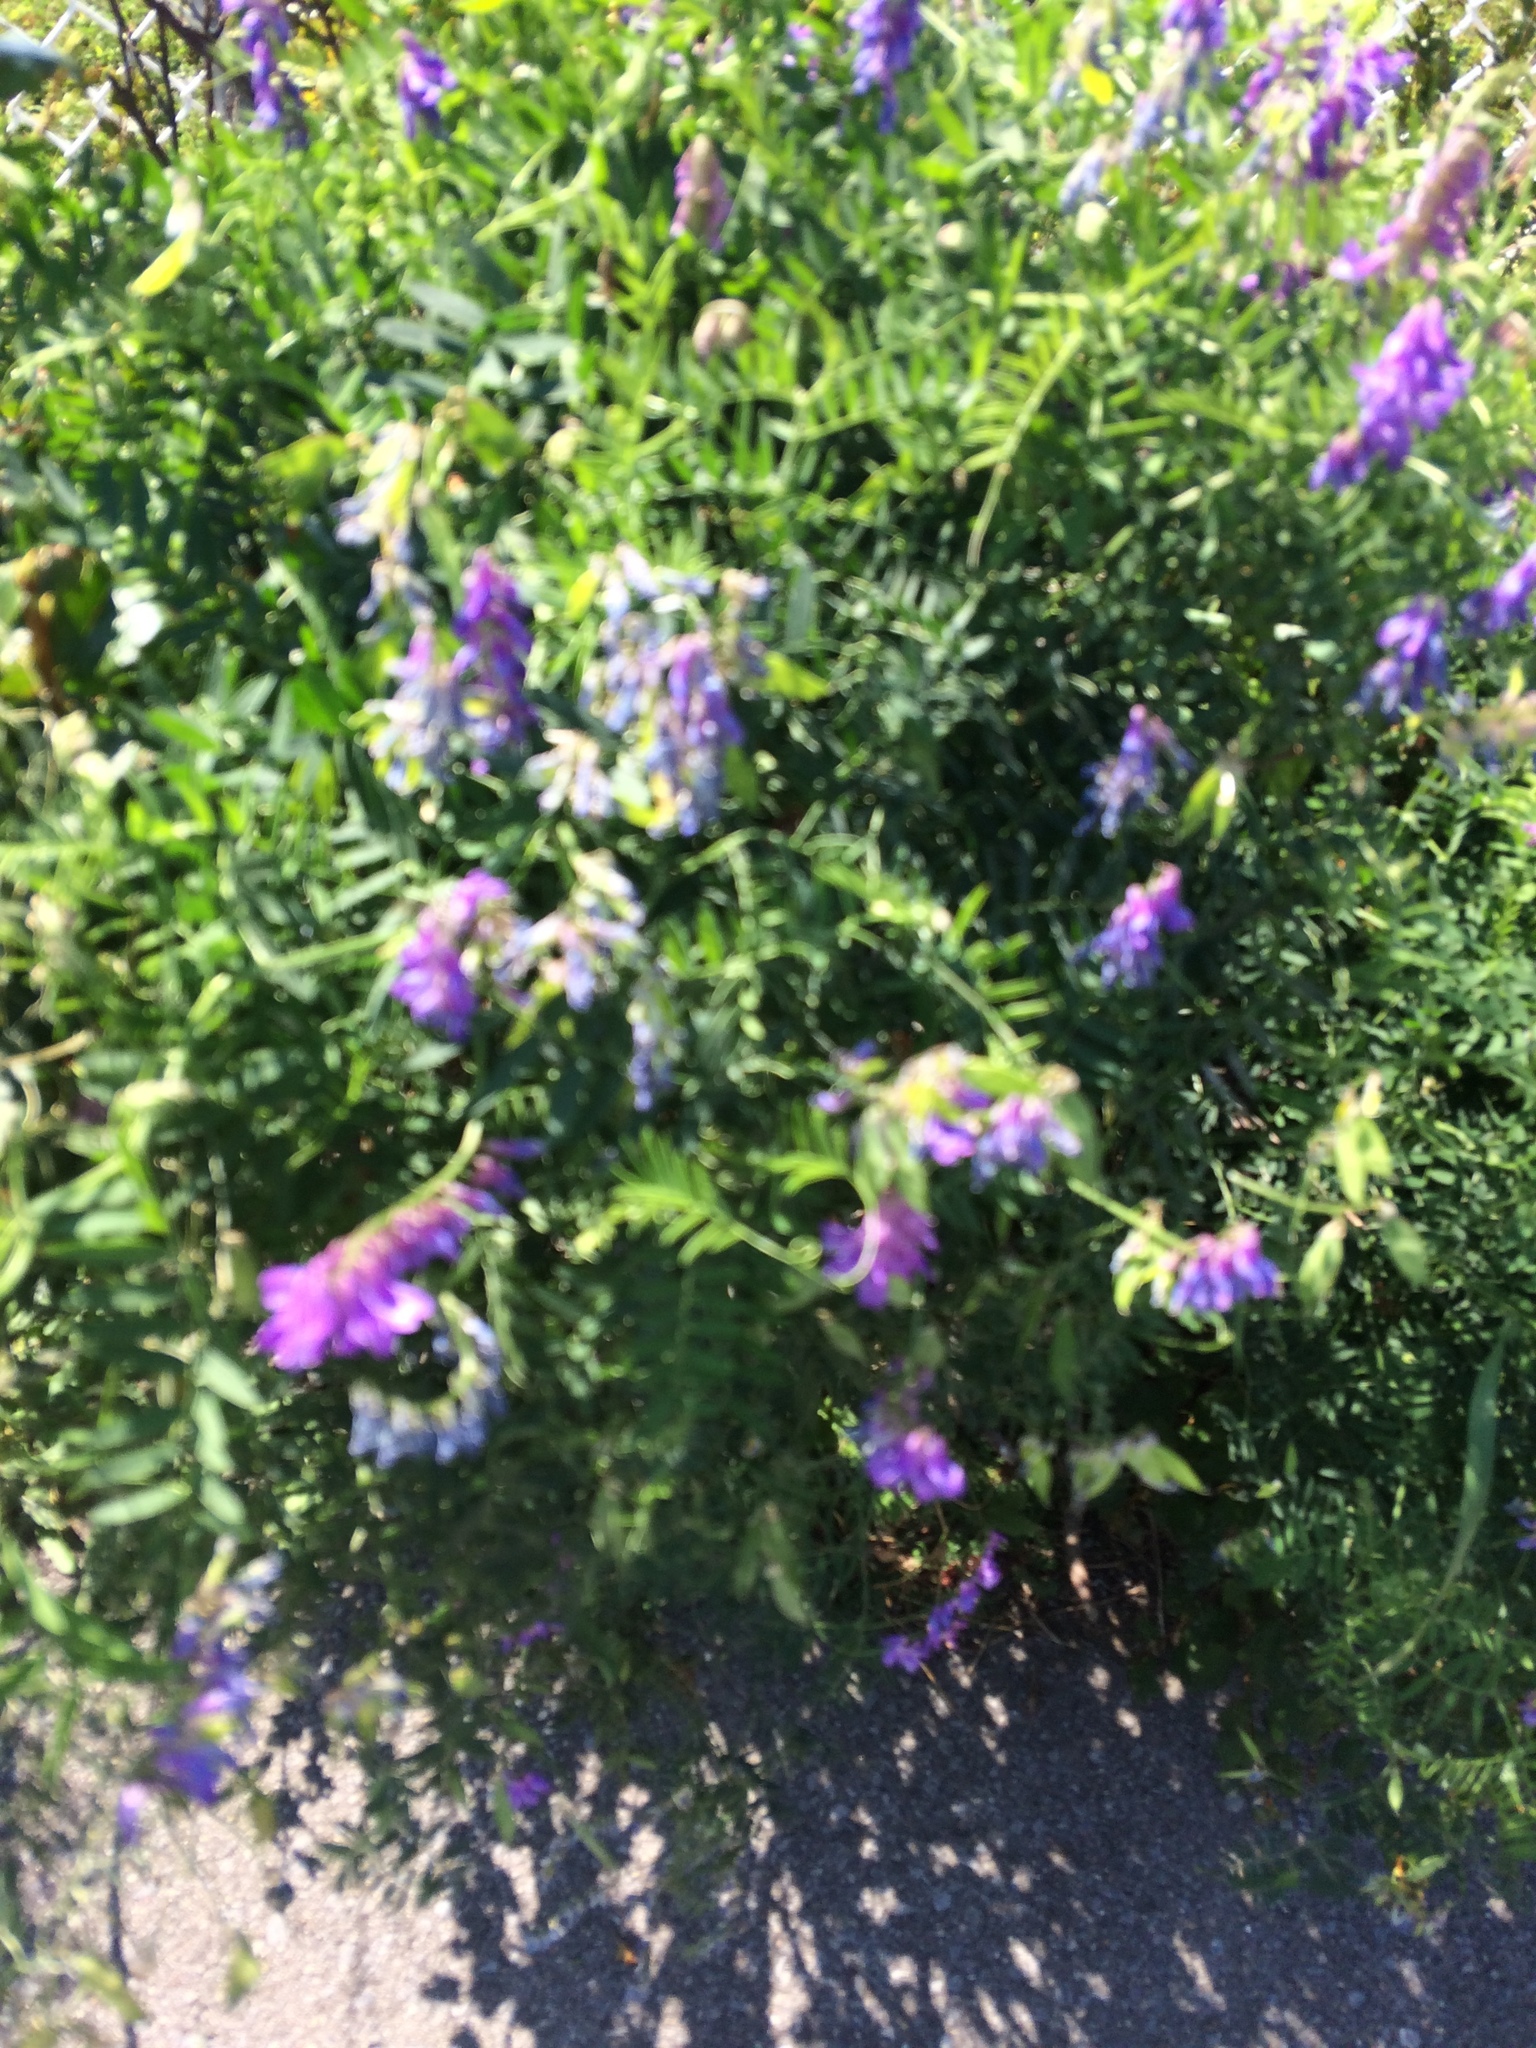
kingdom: Plantae
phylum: Tracheophyta
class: Magnoliopsida
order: Fabales
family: Fabaceae
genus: Vicia
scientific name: Vicia cracca
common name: Bird vetch
